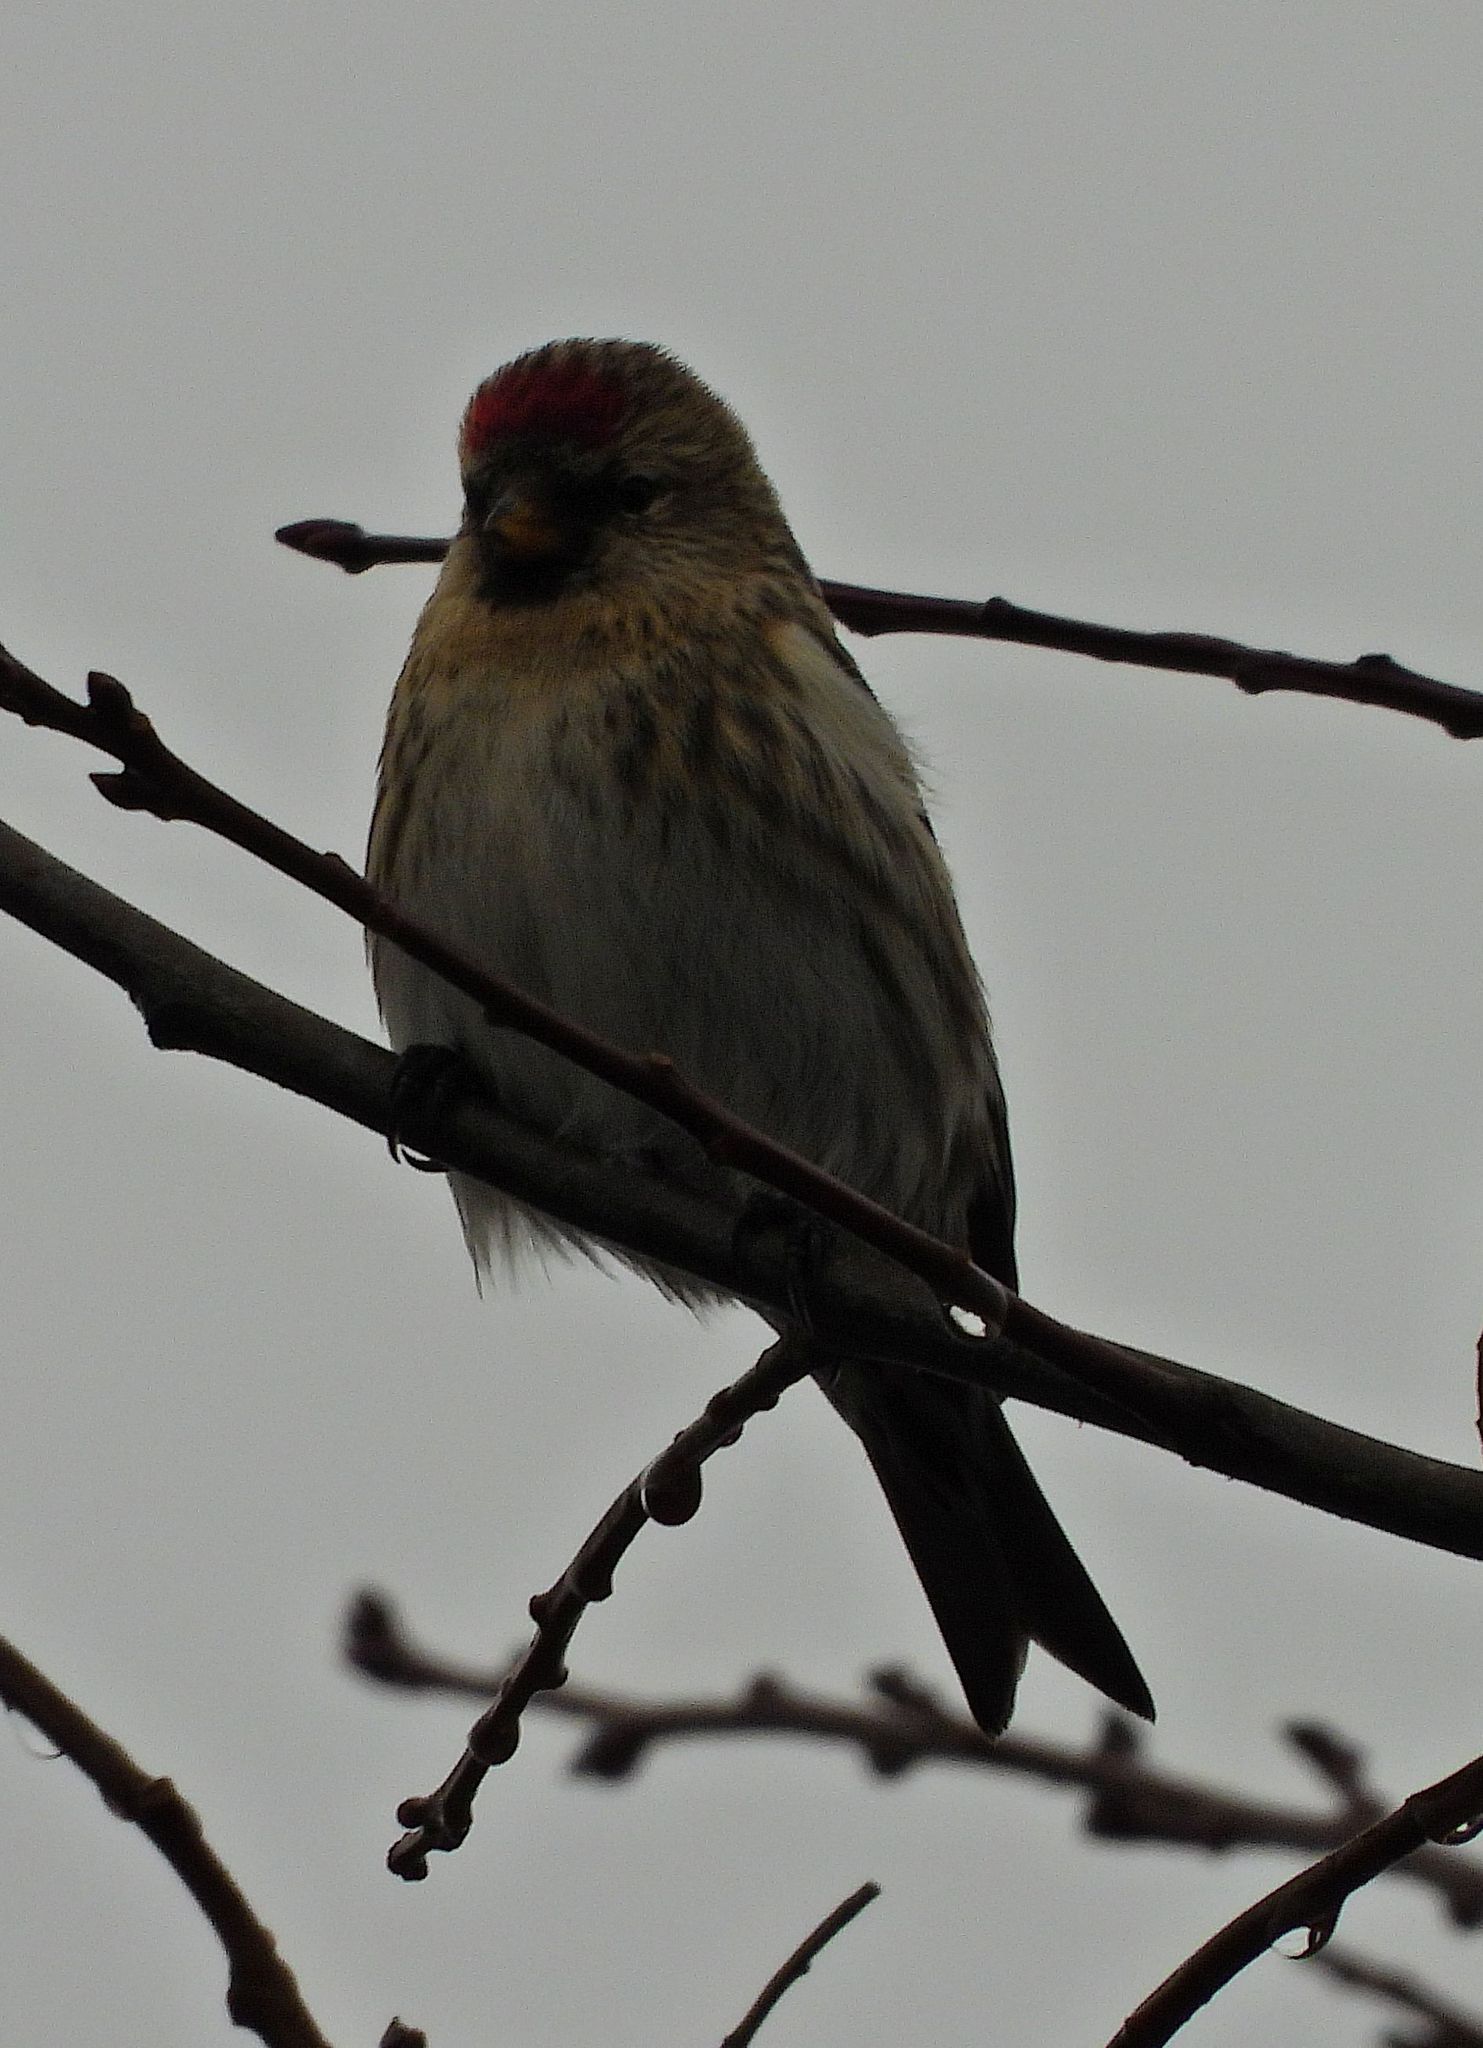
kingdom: Animalia
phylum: Chordata
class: Aves
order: Passeriformes
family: Fringillidae
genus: Acanthis
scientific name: Acanthis flammea
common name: Common redpoll
